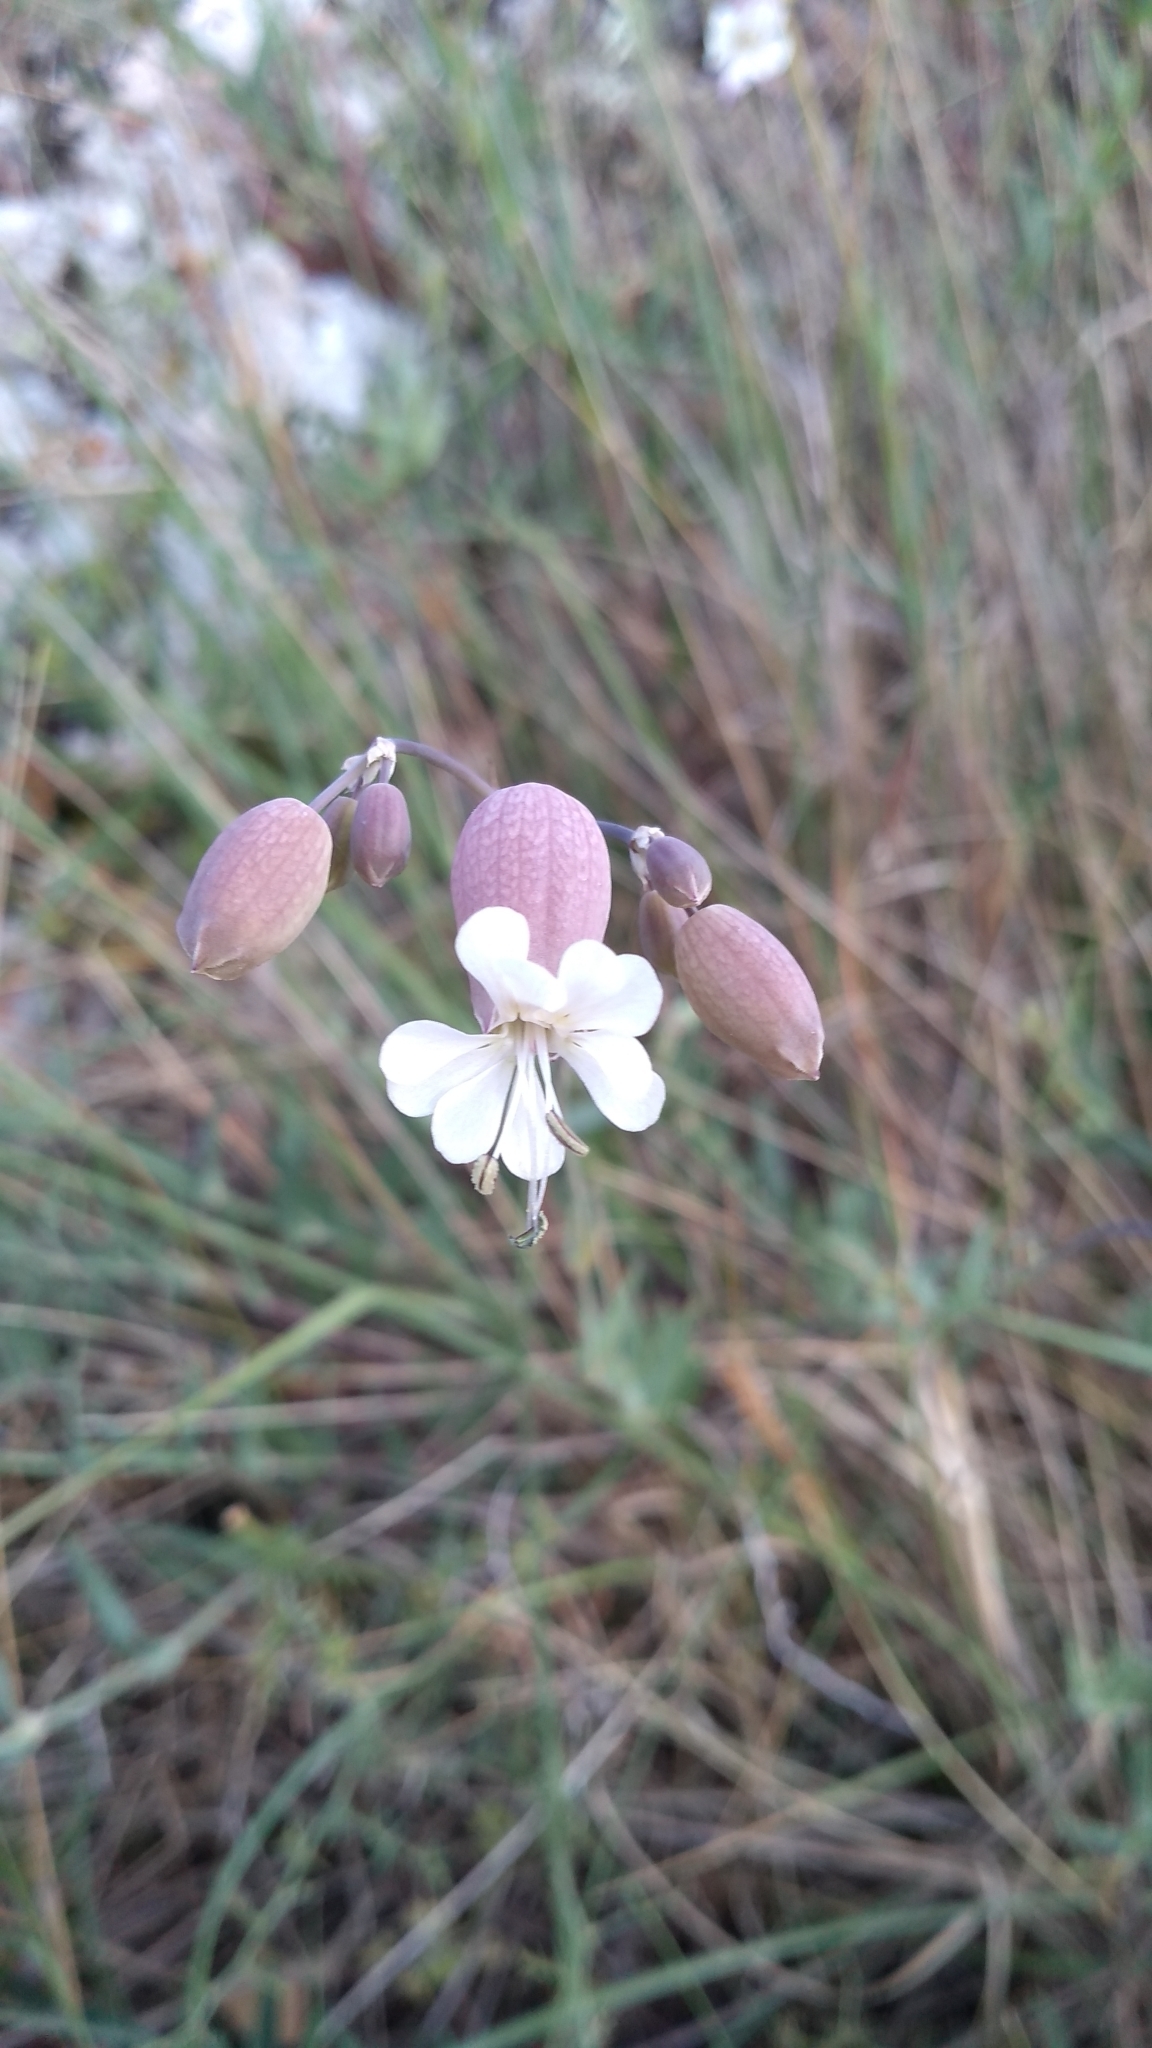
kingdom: Plantae
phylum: Tracheophyta
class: Magnoliopsida
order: Caryophyllales
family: Caryophyllaceae
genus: Silene
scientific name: Silene vulgaris
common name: Bladder campion
